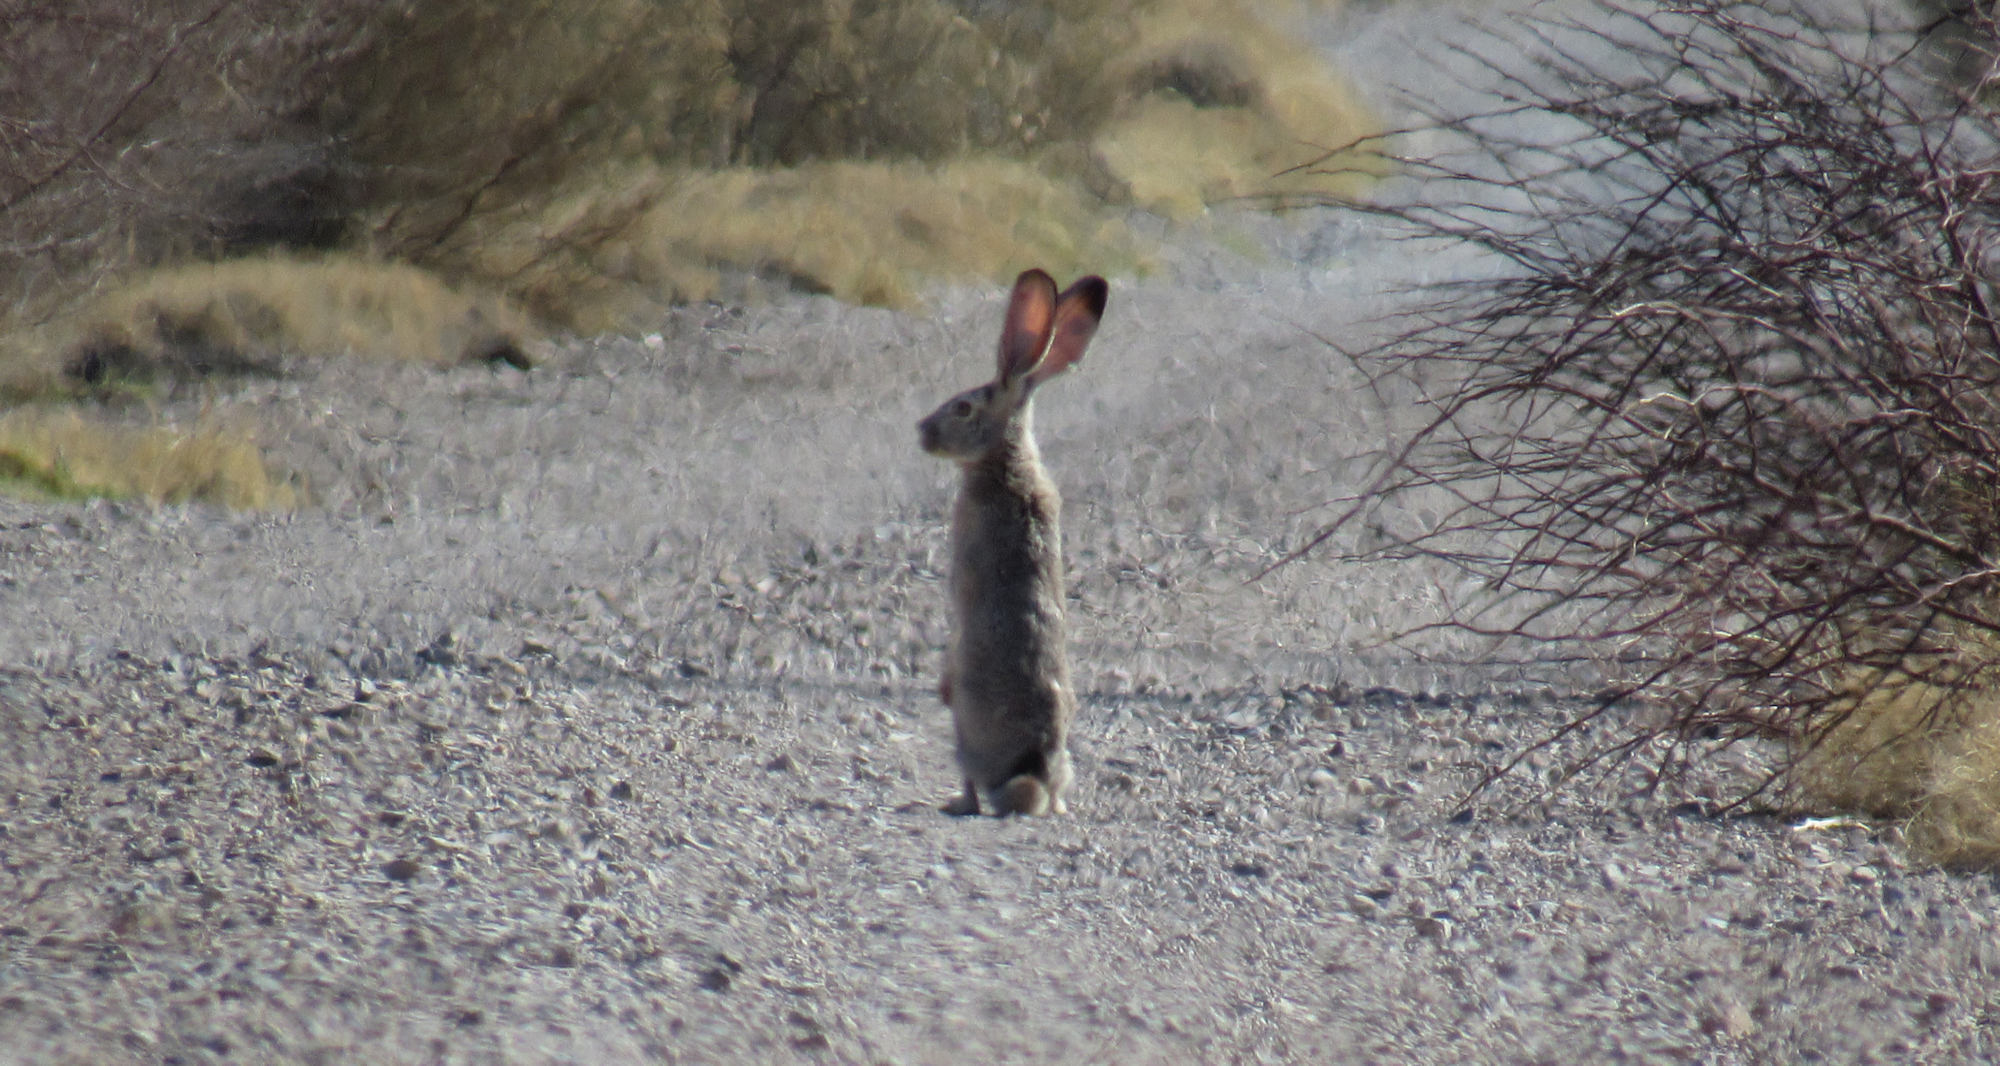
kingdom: Animalia
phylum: Chordata
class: Mammalia
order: Lagomorpha
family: Leporidae
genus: Lepus
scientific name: Lepus californicus
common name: Black-tailed jackrabbit
